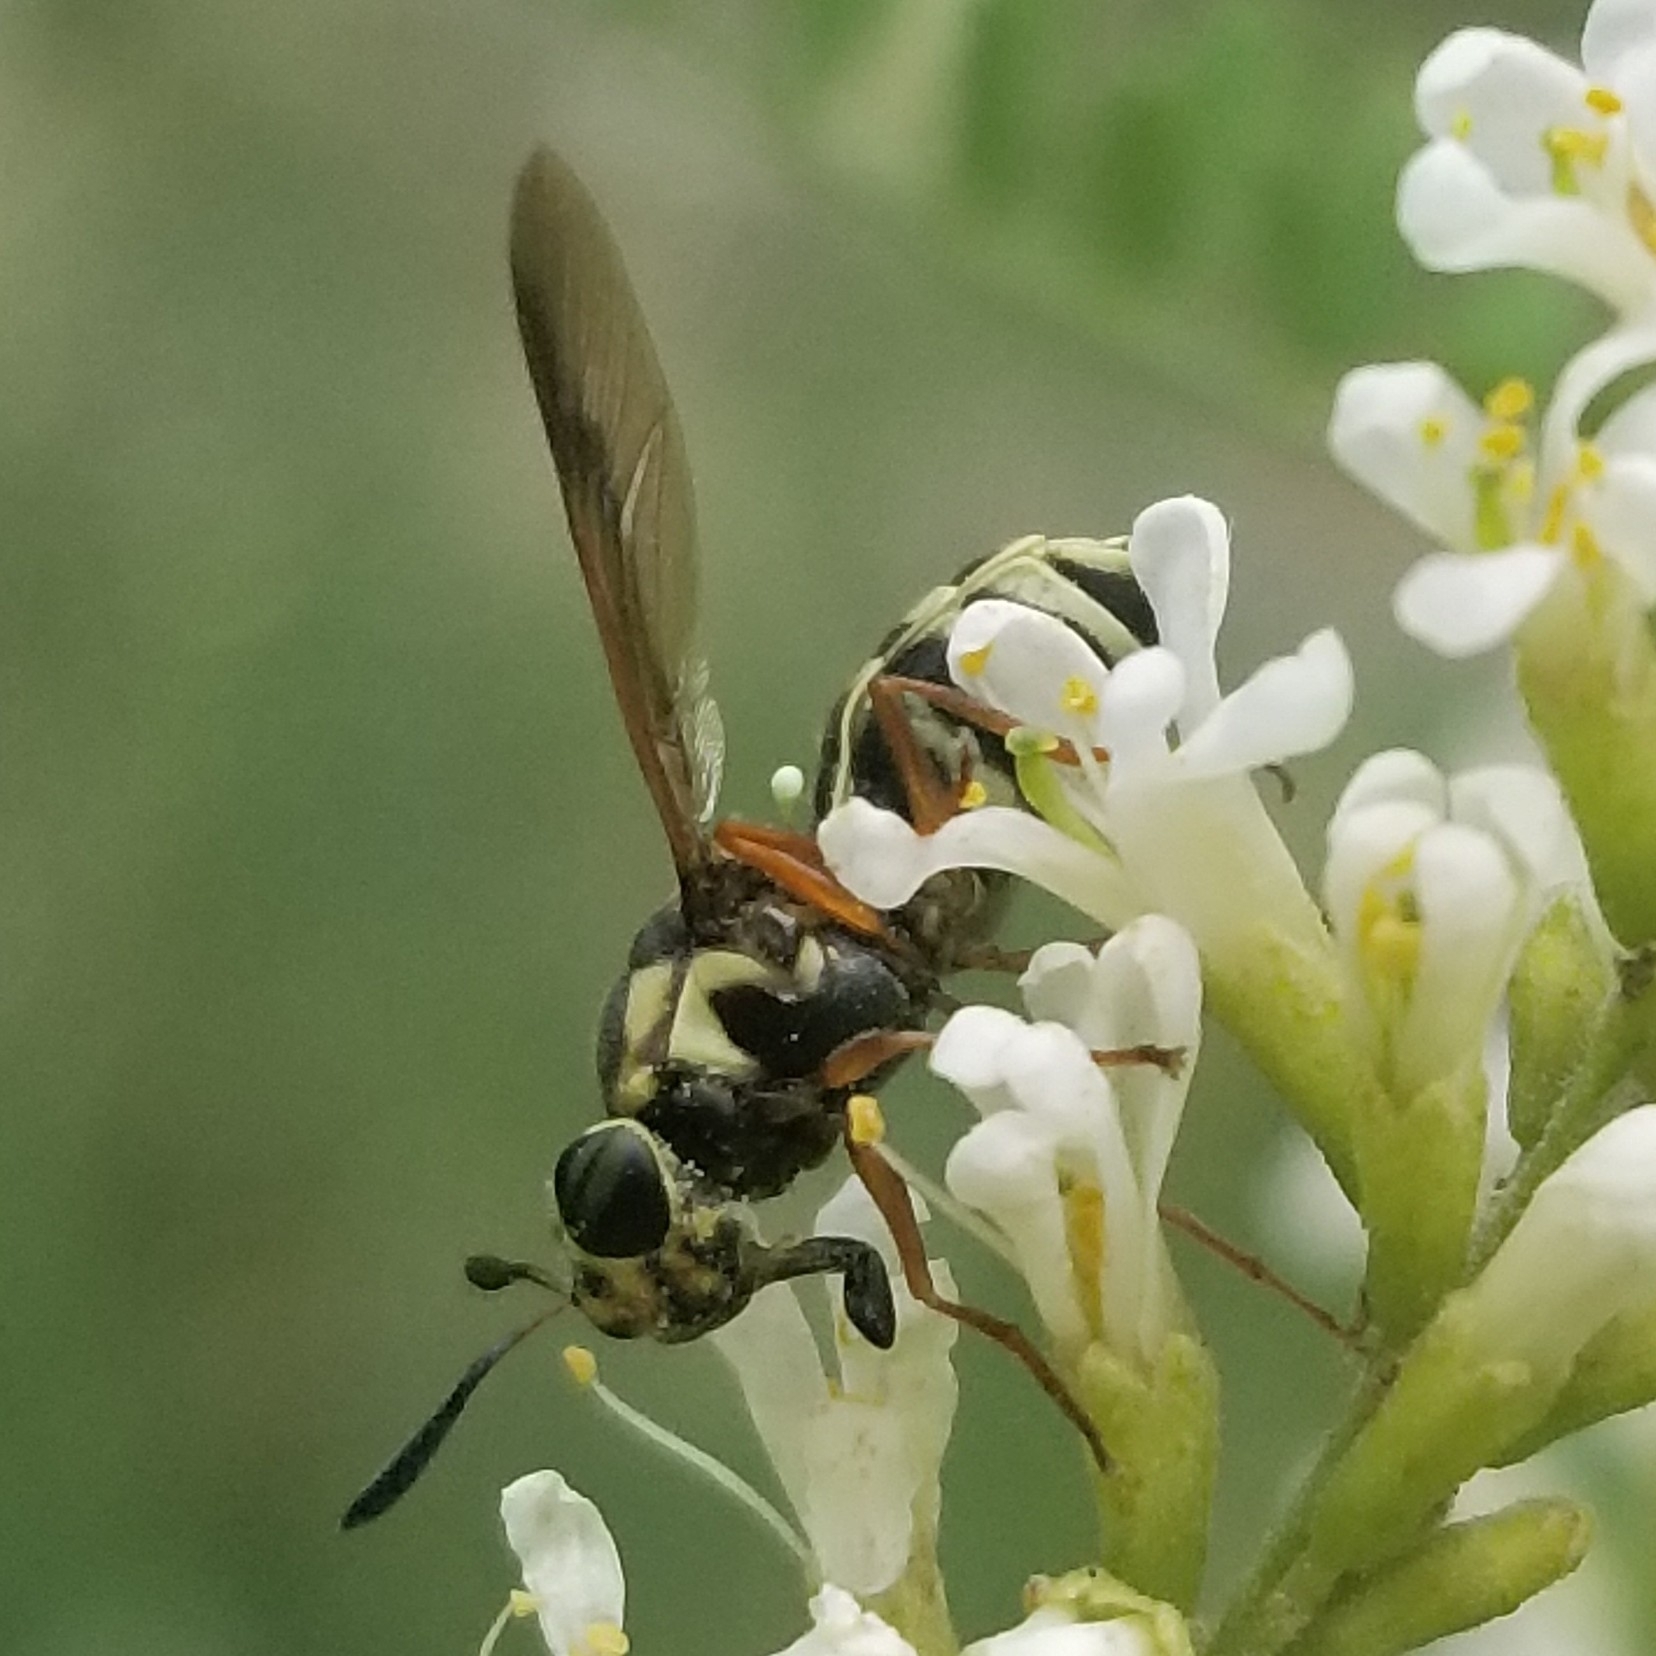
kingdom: Animalia
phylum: Arthropoda
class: Insecta
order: Diptera
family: Stratiomyidae
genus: Hoplitimyia
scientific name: Hoplitimyia constans
